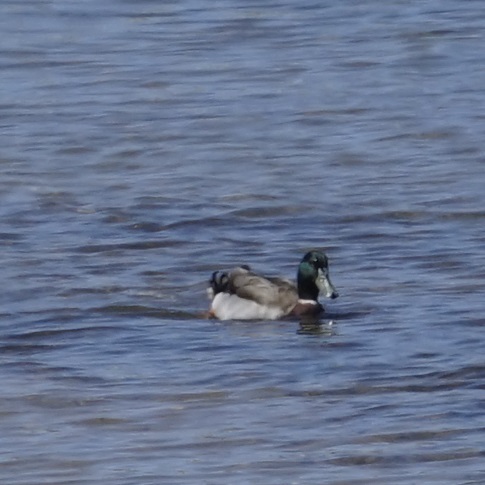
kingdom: Animalia
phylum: Chordata
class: Aves
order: Anseriformes
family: Anatidae
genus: Anas
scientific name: Anas platyrhynchos
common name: Mallard
